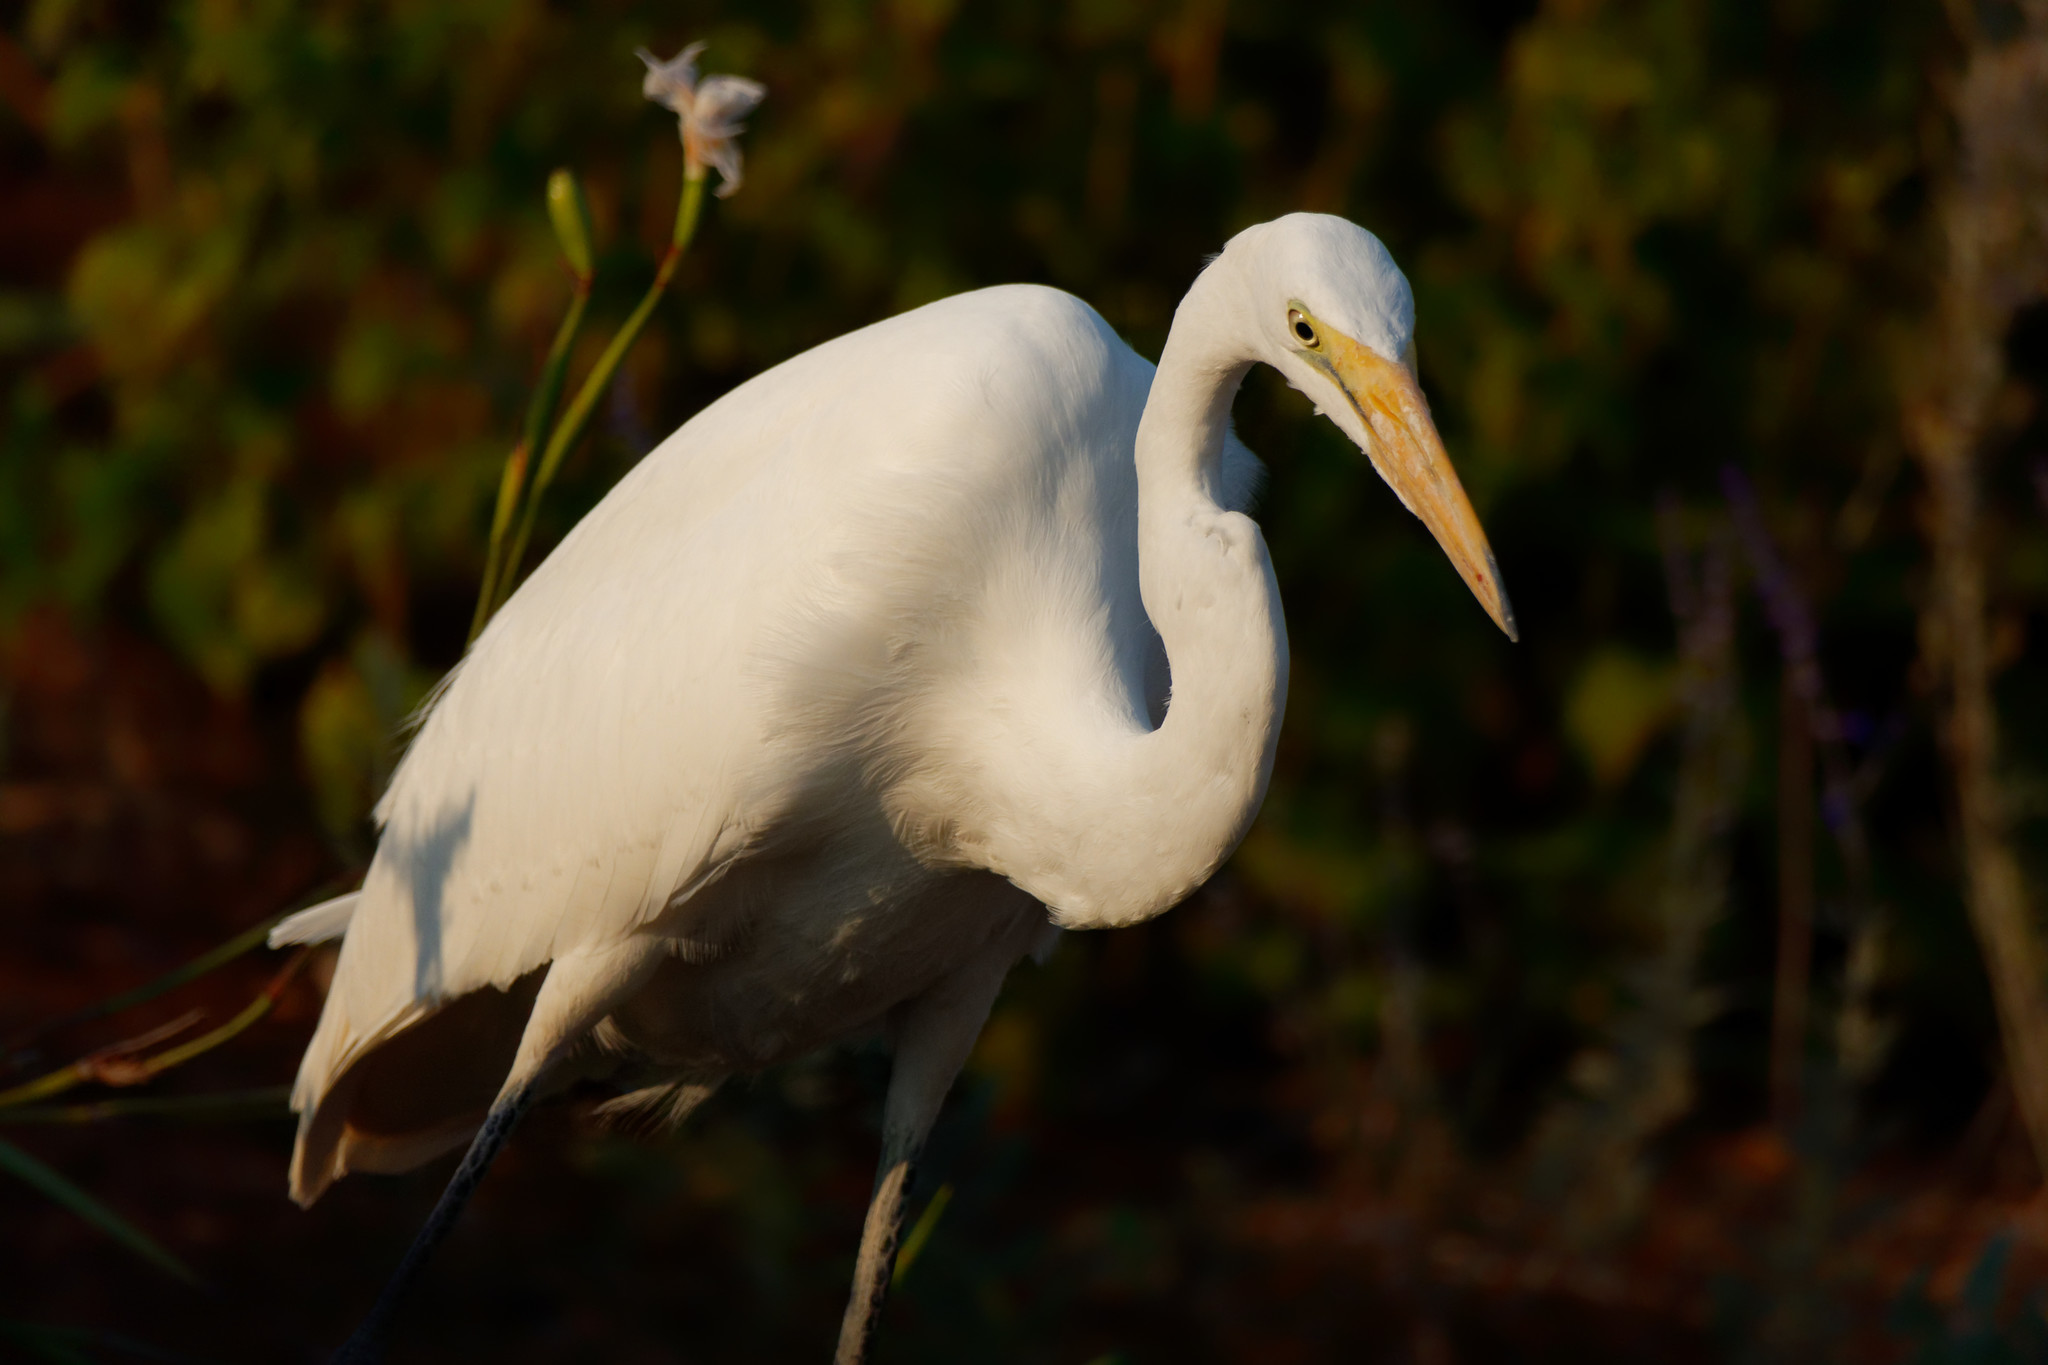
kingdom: Animalia
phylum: Chordata
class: Aves
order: Pelecaniformes
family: Ardeidae
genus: Ardea
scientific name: Ardea alba
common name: Great egret
